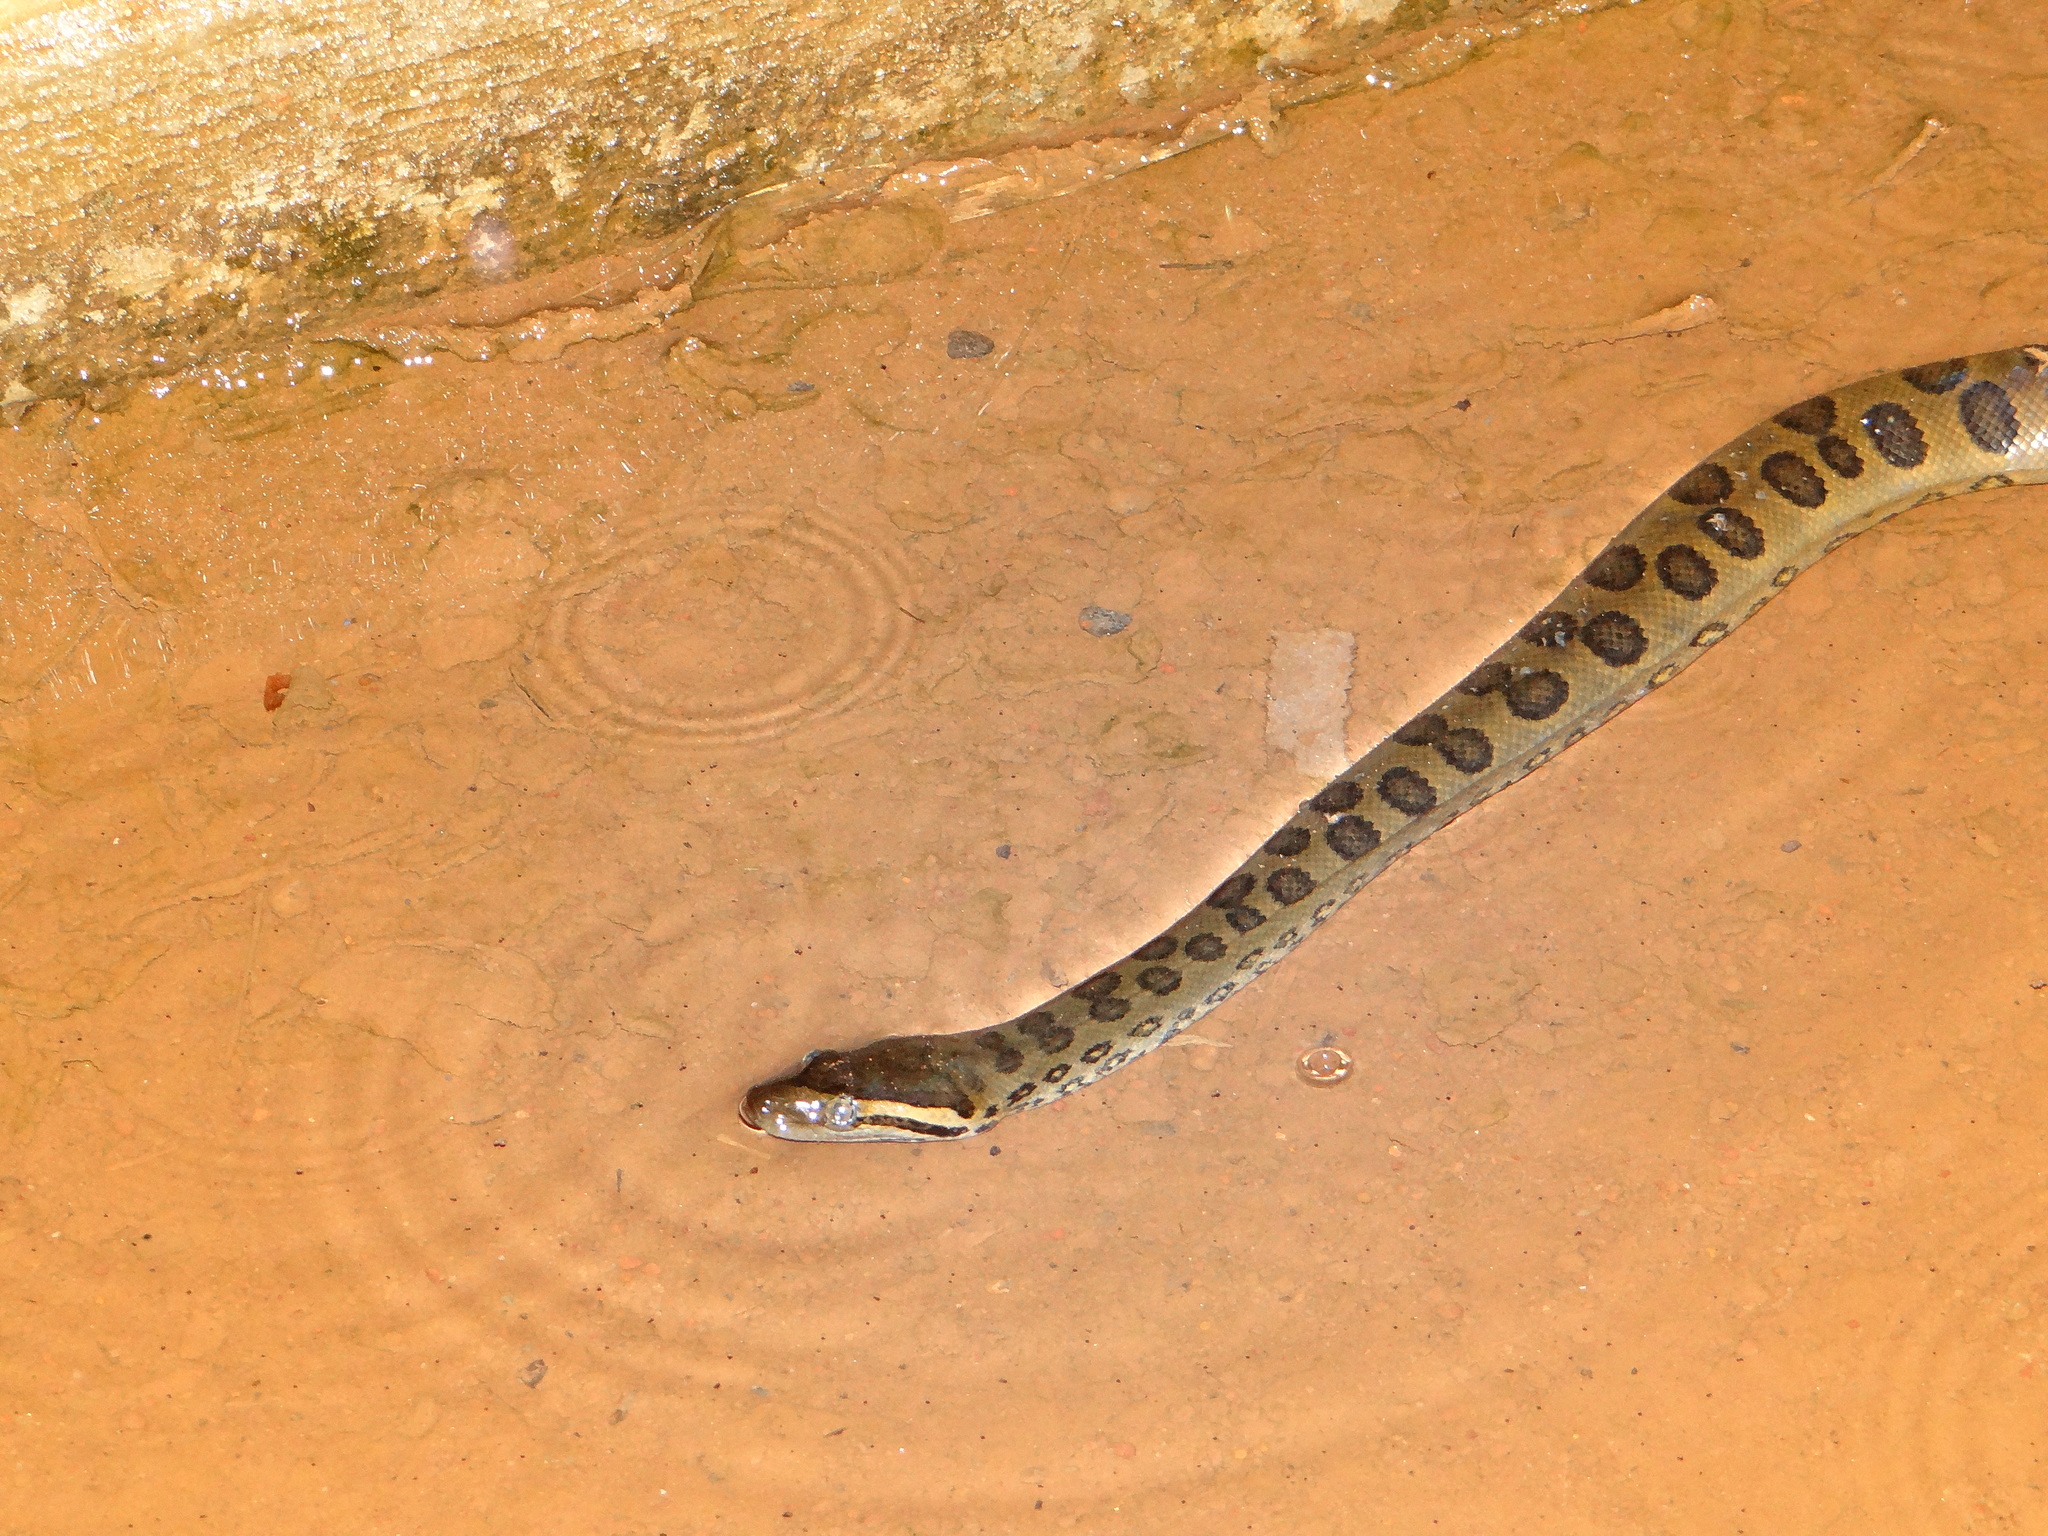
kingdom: Animalia
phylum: Chordata
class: Squamata
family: Boidae
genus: Eunectes
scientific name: Eunectes murinus
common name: Anaconda
